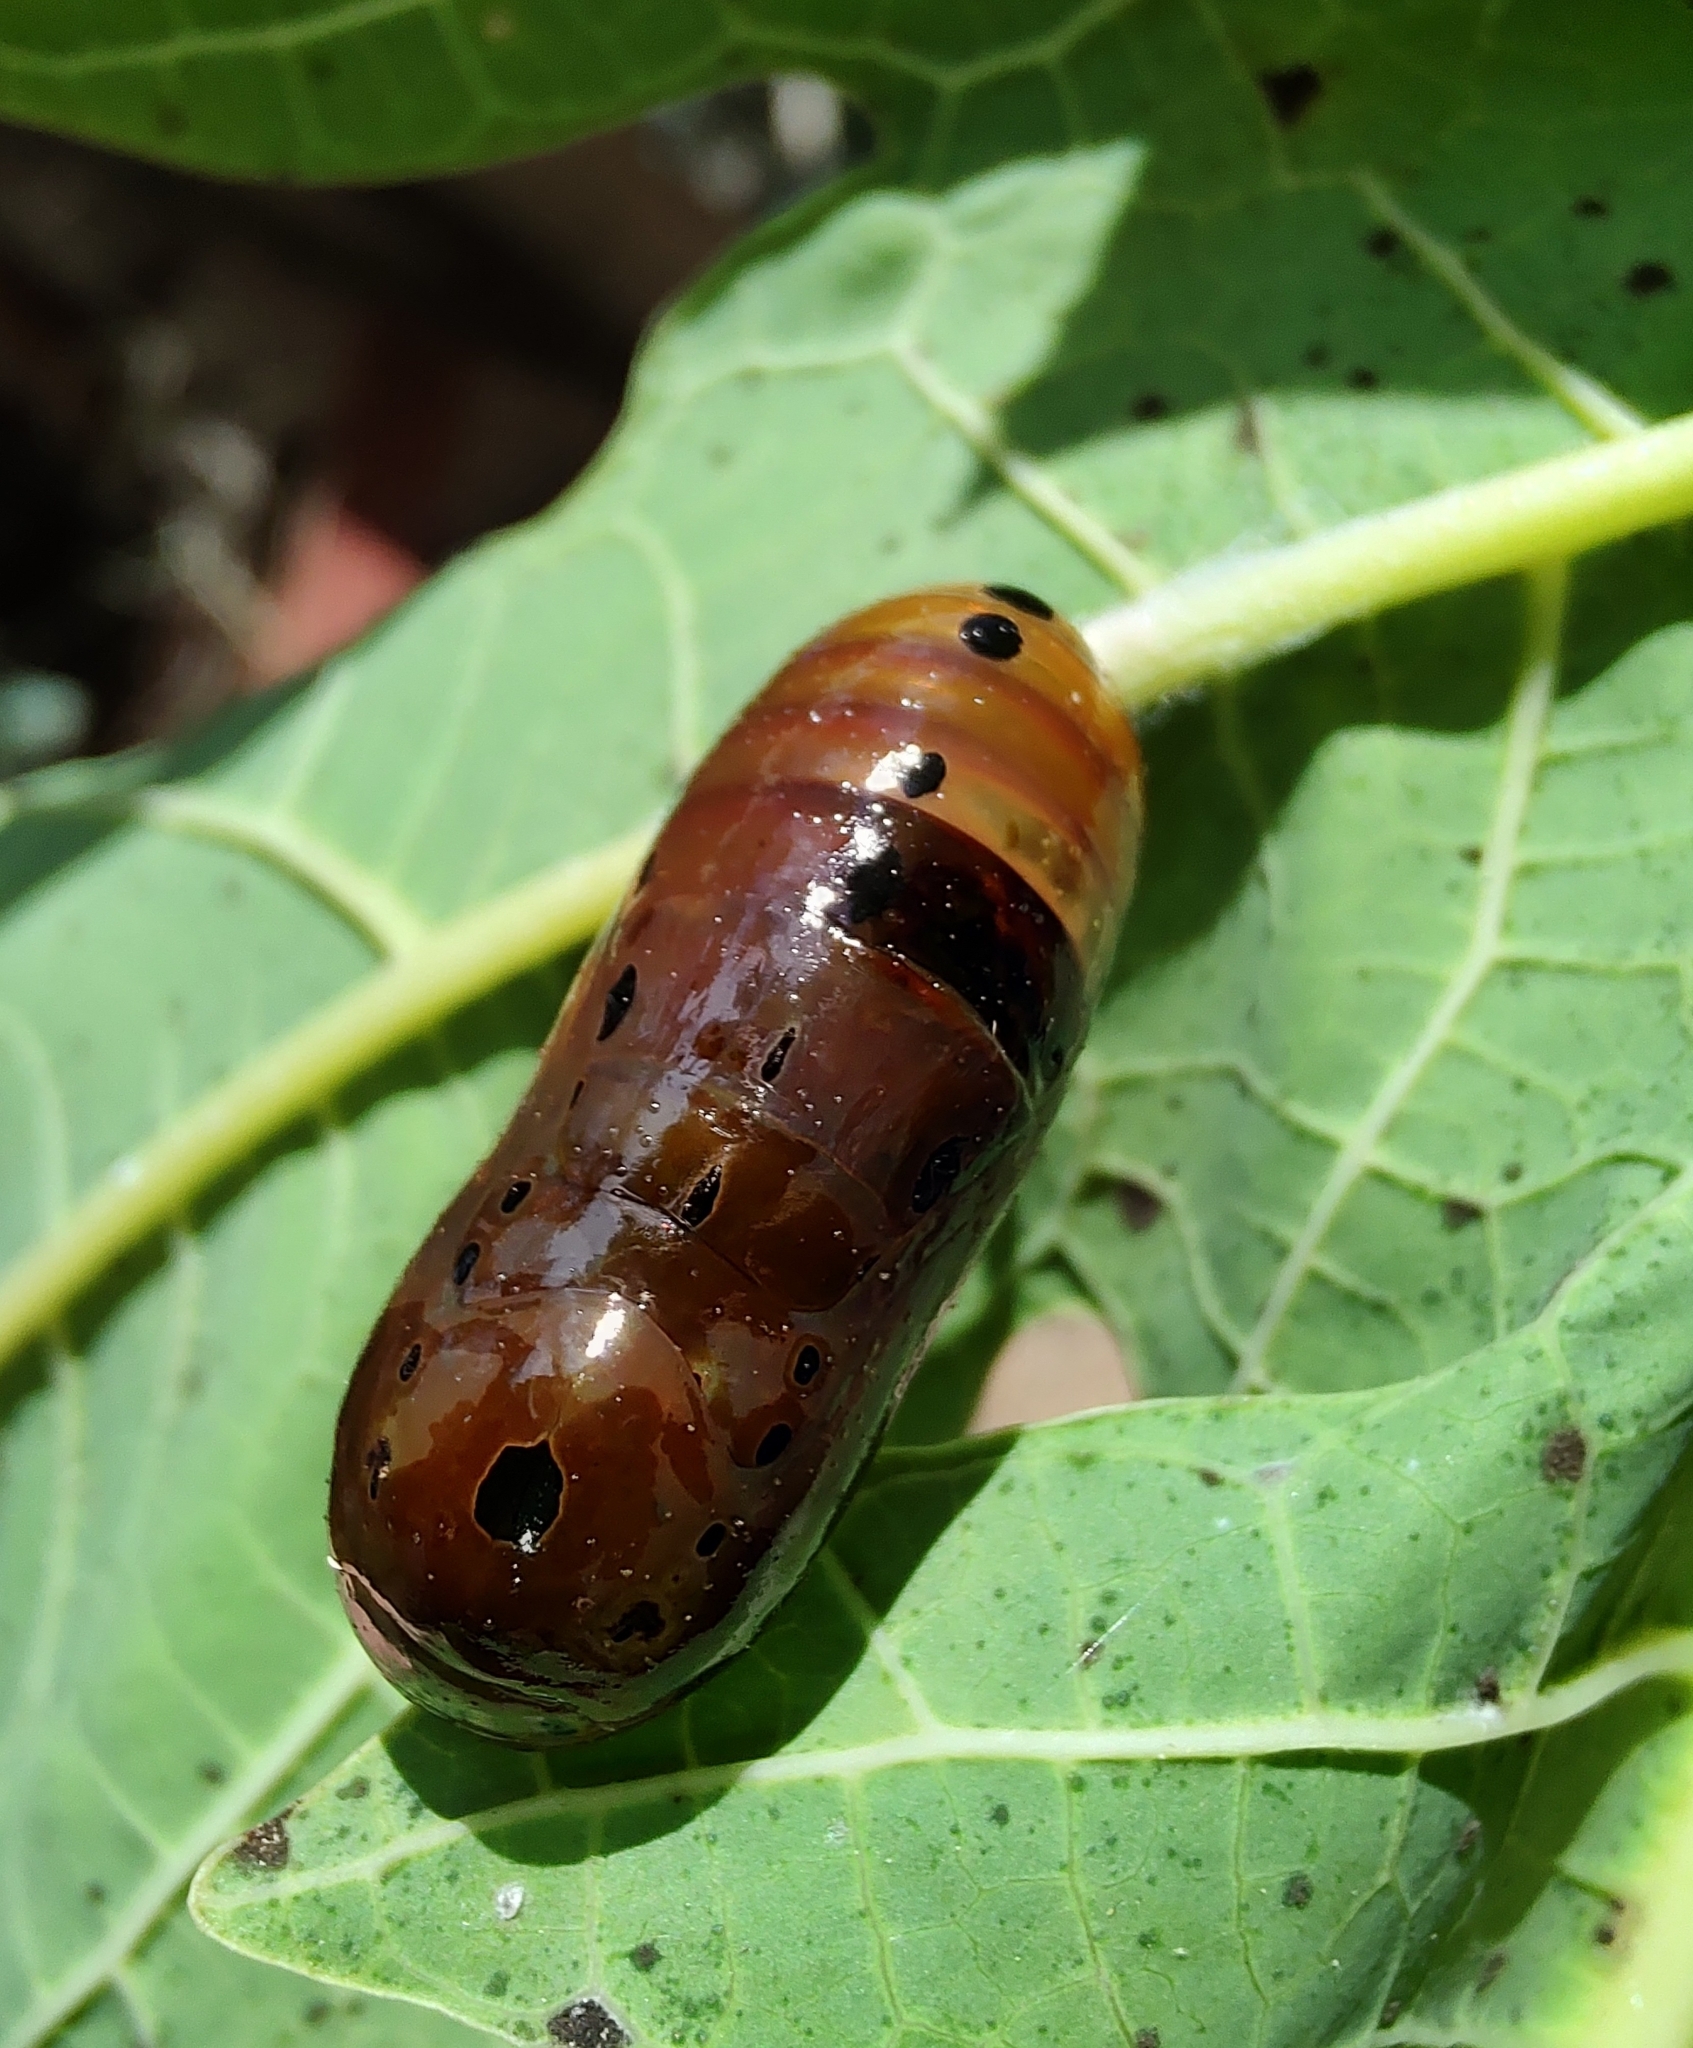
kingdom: Animalia
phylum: Arthropoda
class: Insecta
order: Lepidoptera
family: Nymphalidae
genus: Lycorea
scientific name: Lycorea cleobaea
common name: Tiger mimic-queen
